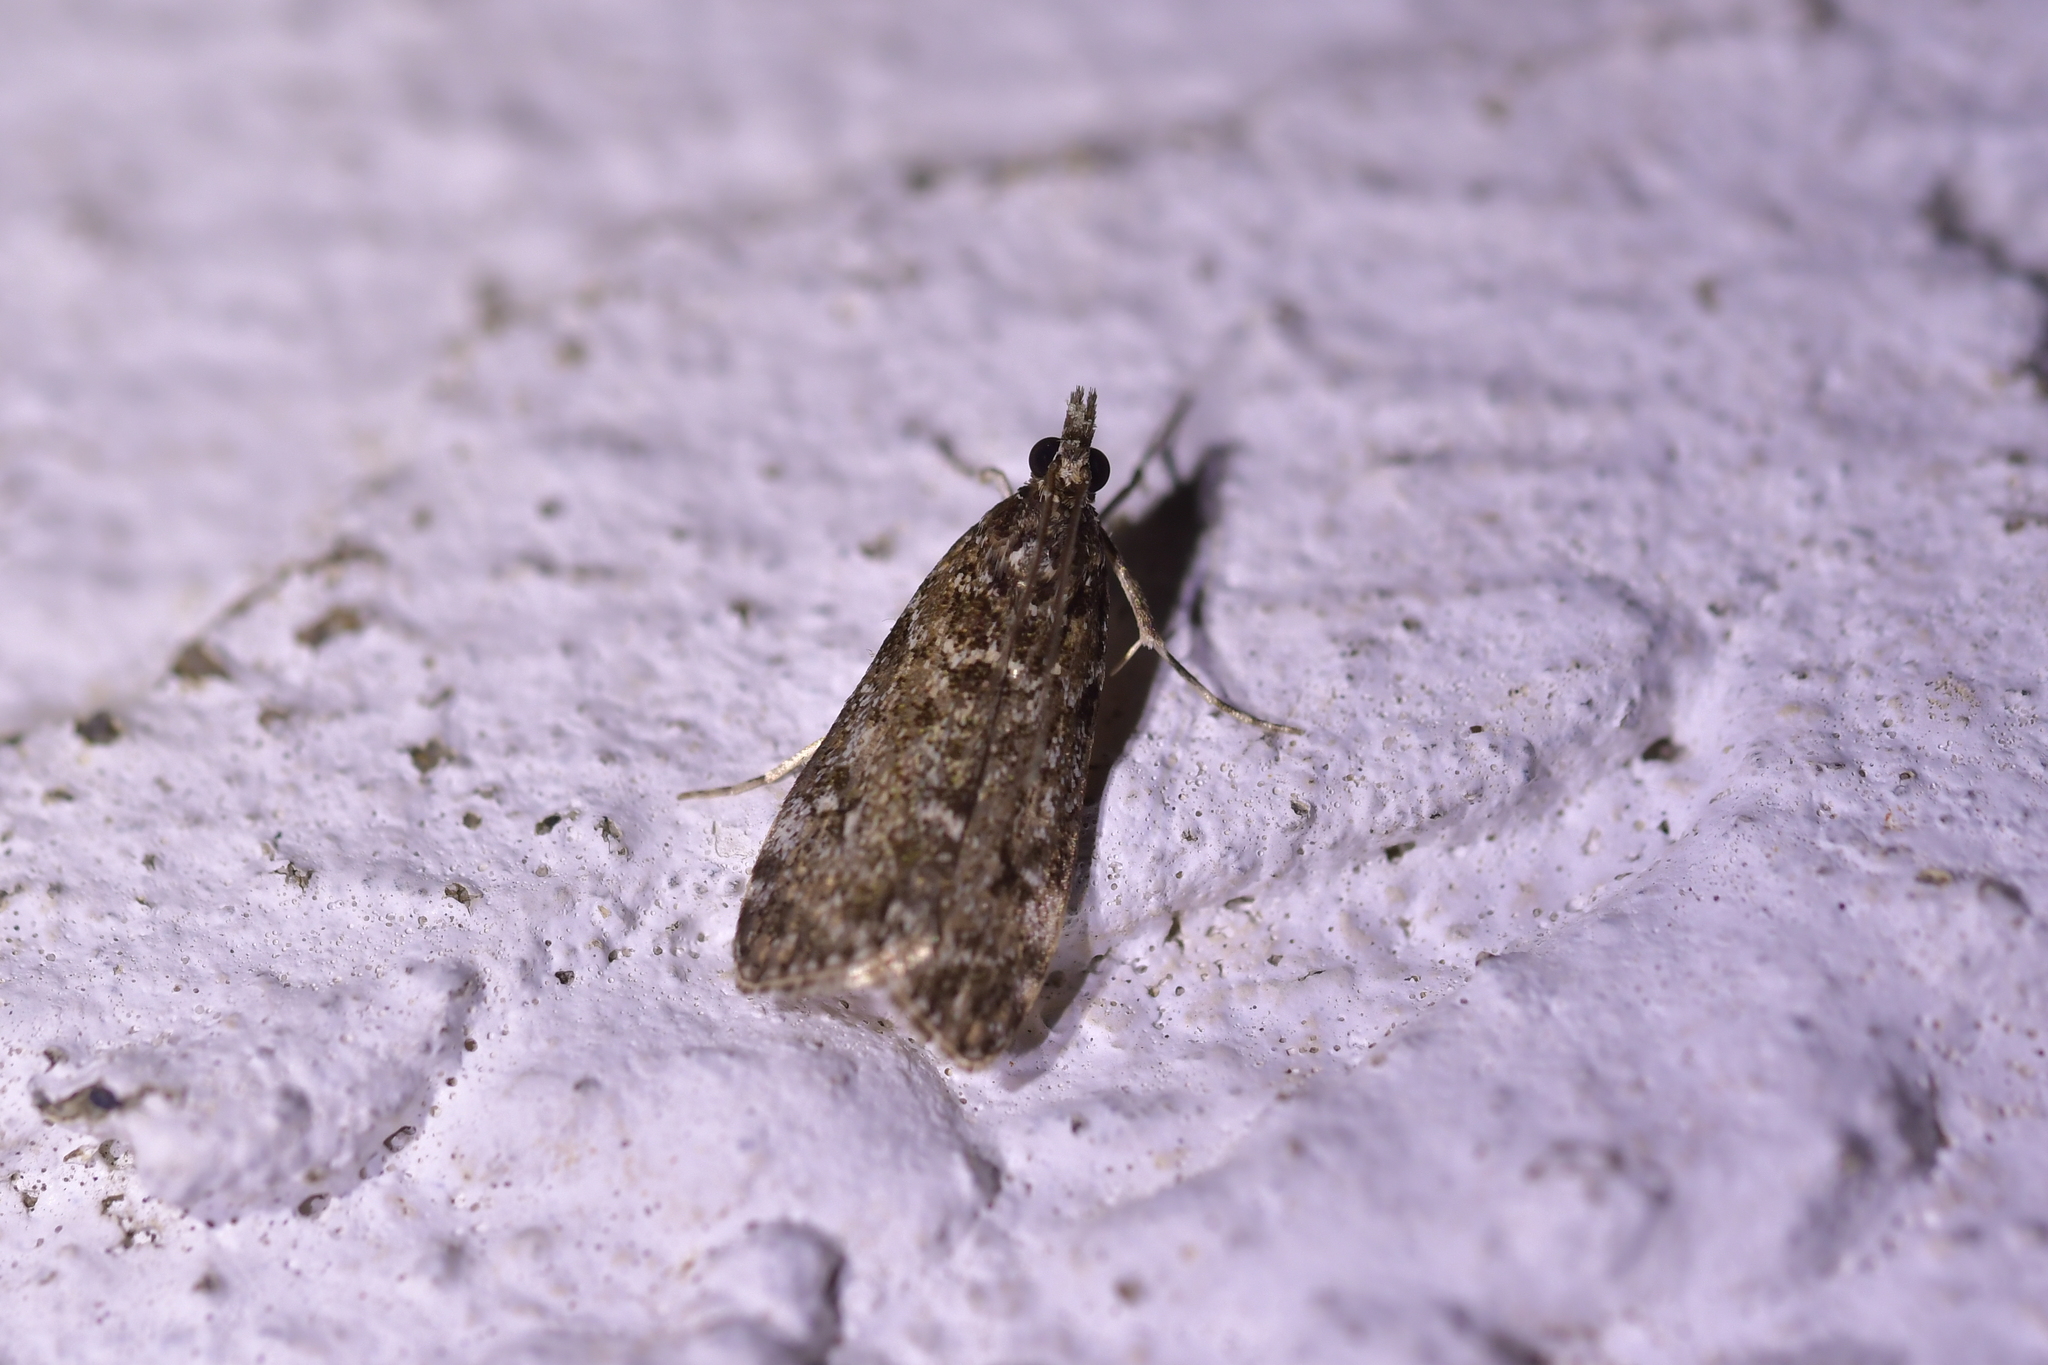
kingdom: Animalia
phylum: Arthropoda
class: Insecta
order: Lepidoptera
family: Crambidae
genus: Eudonia
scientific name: Eudonia philerga
